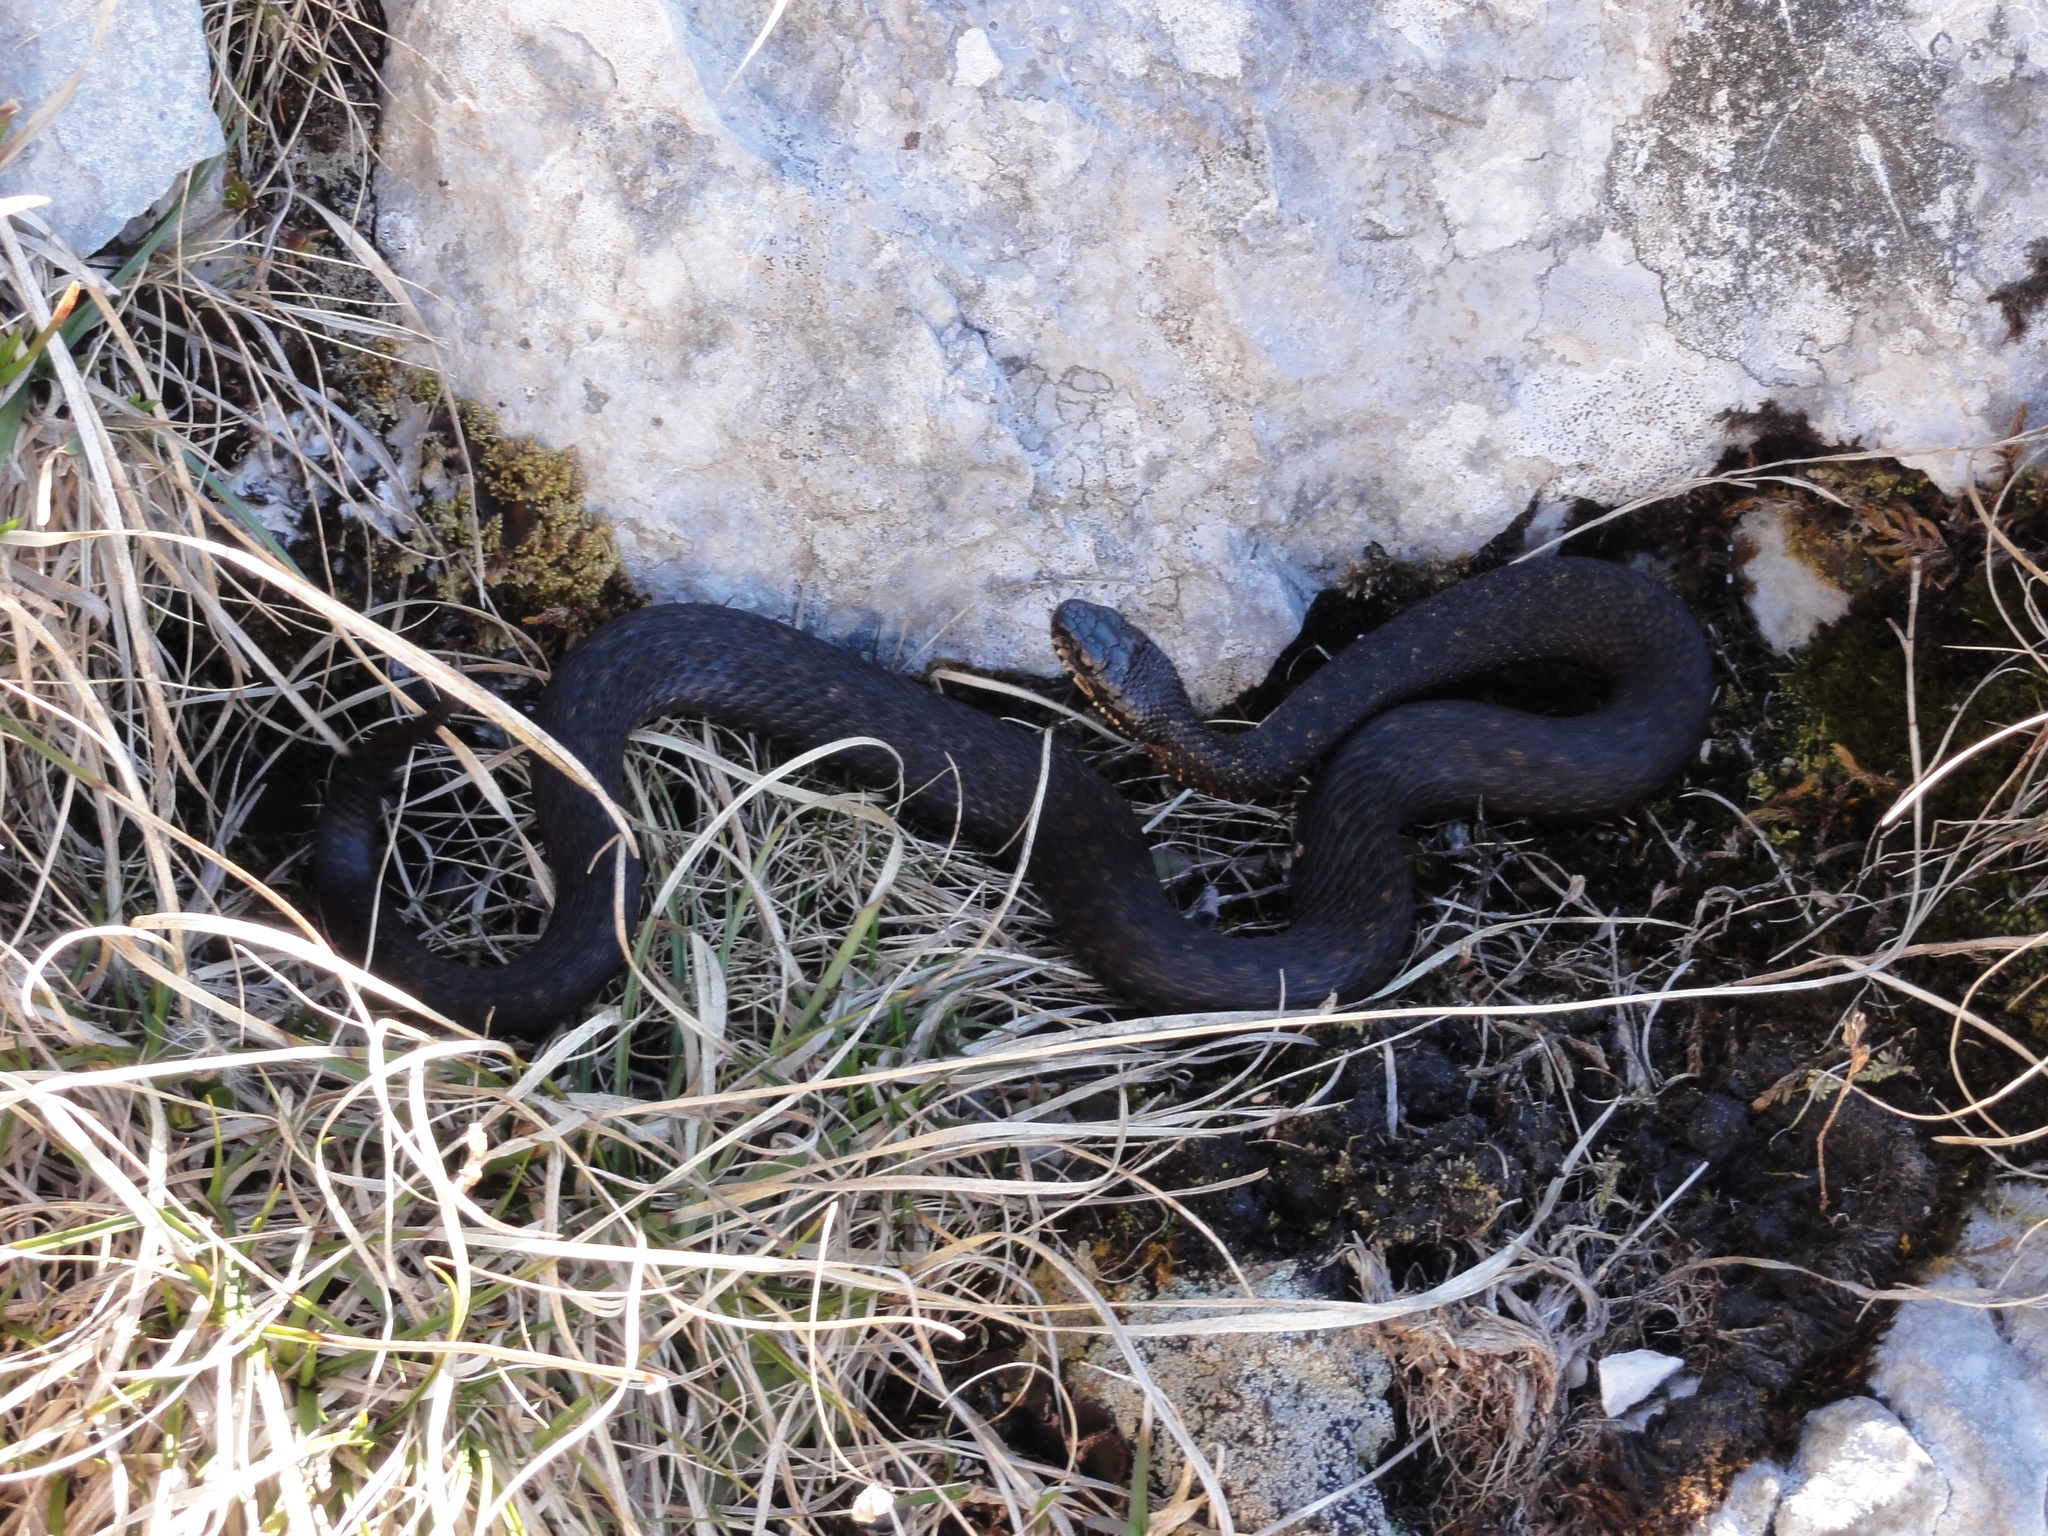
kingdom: Animalia
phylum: Chordata
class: Squamata
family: Viperidae
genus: Vipera
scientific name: Vipera berus
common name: Adder
